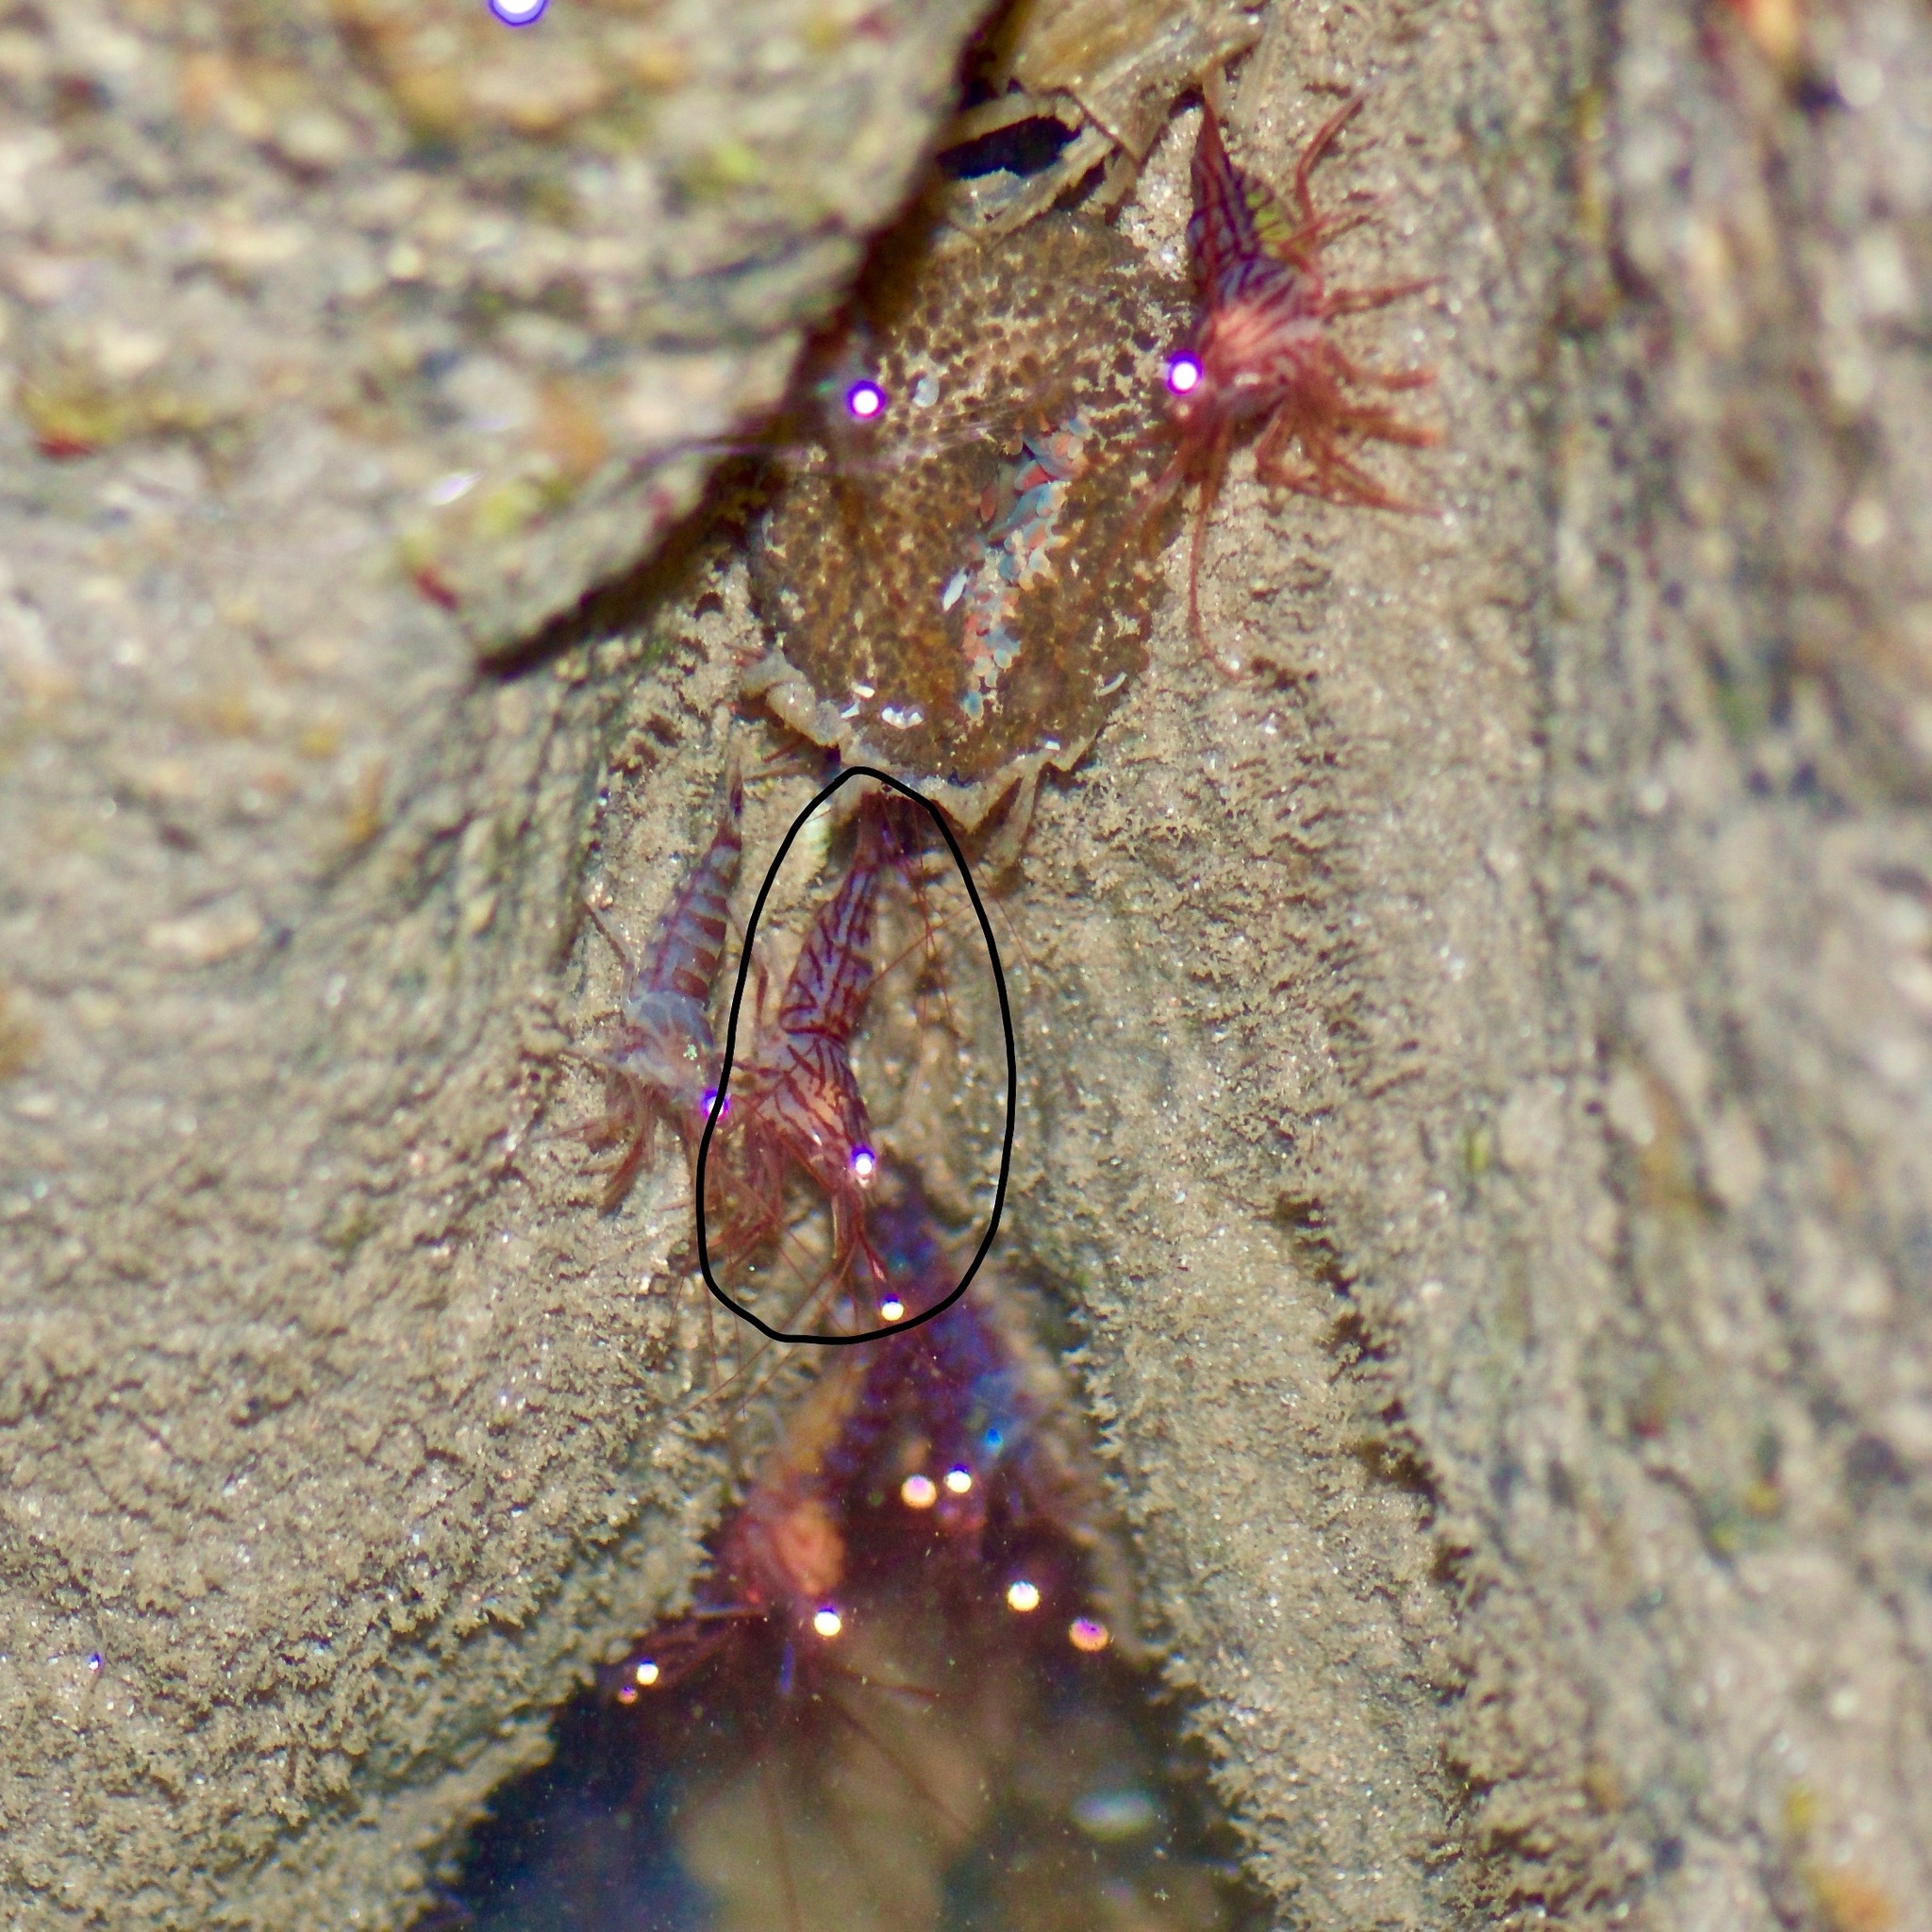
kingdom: Animalia
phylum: Arthropoda
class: Malacostraca
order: Decapoda
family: Lysmatidae
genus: Lysmata
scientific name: Lysmata wurdemanni
